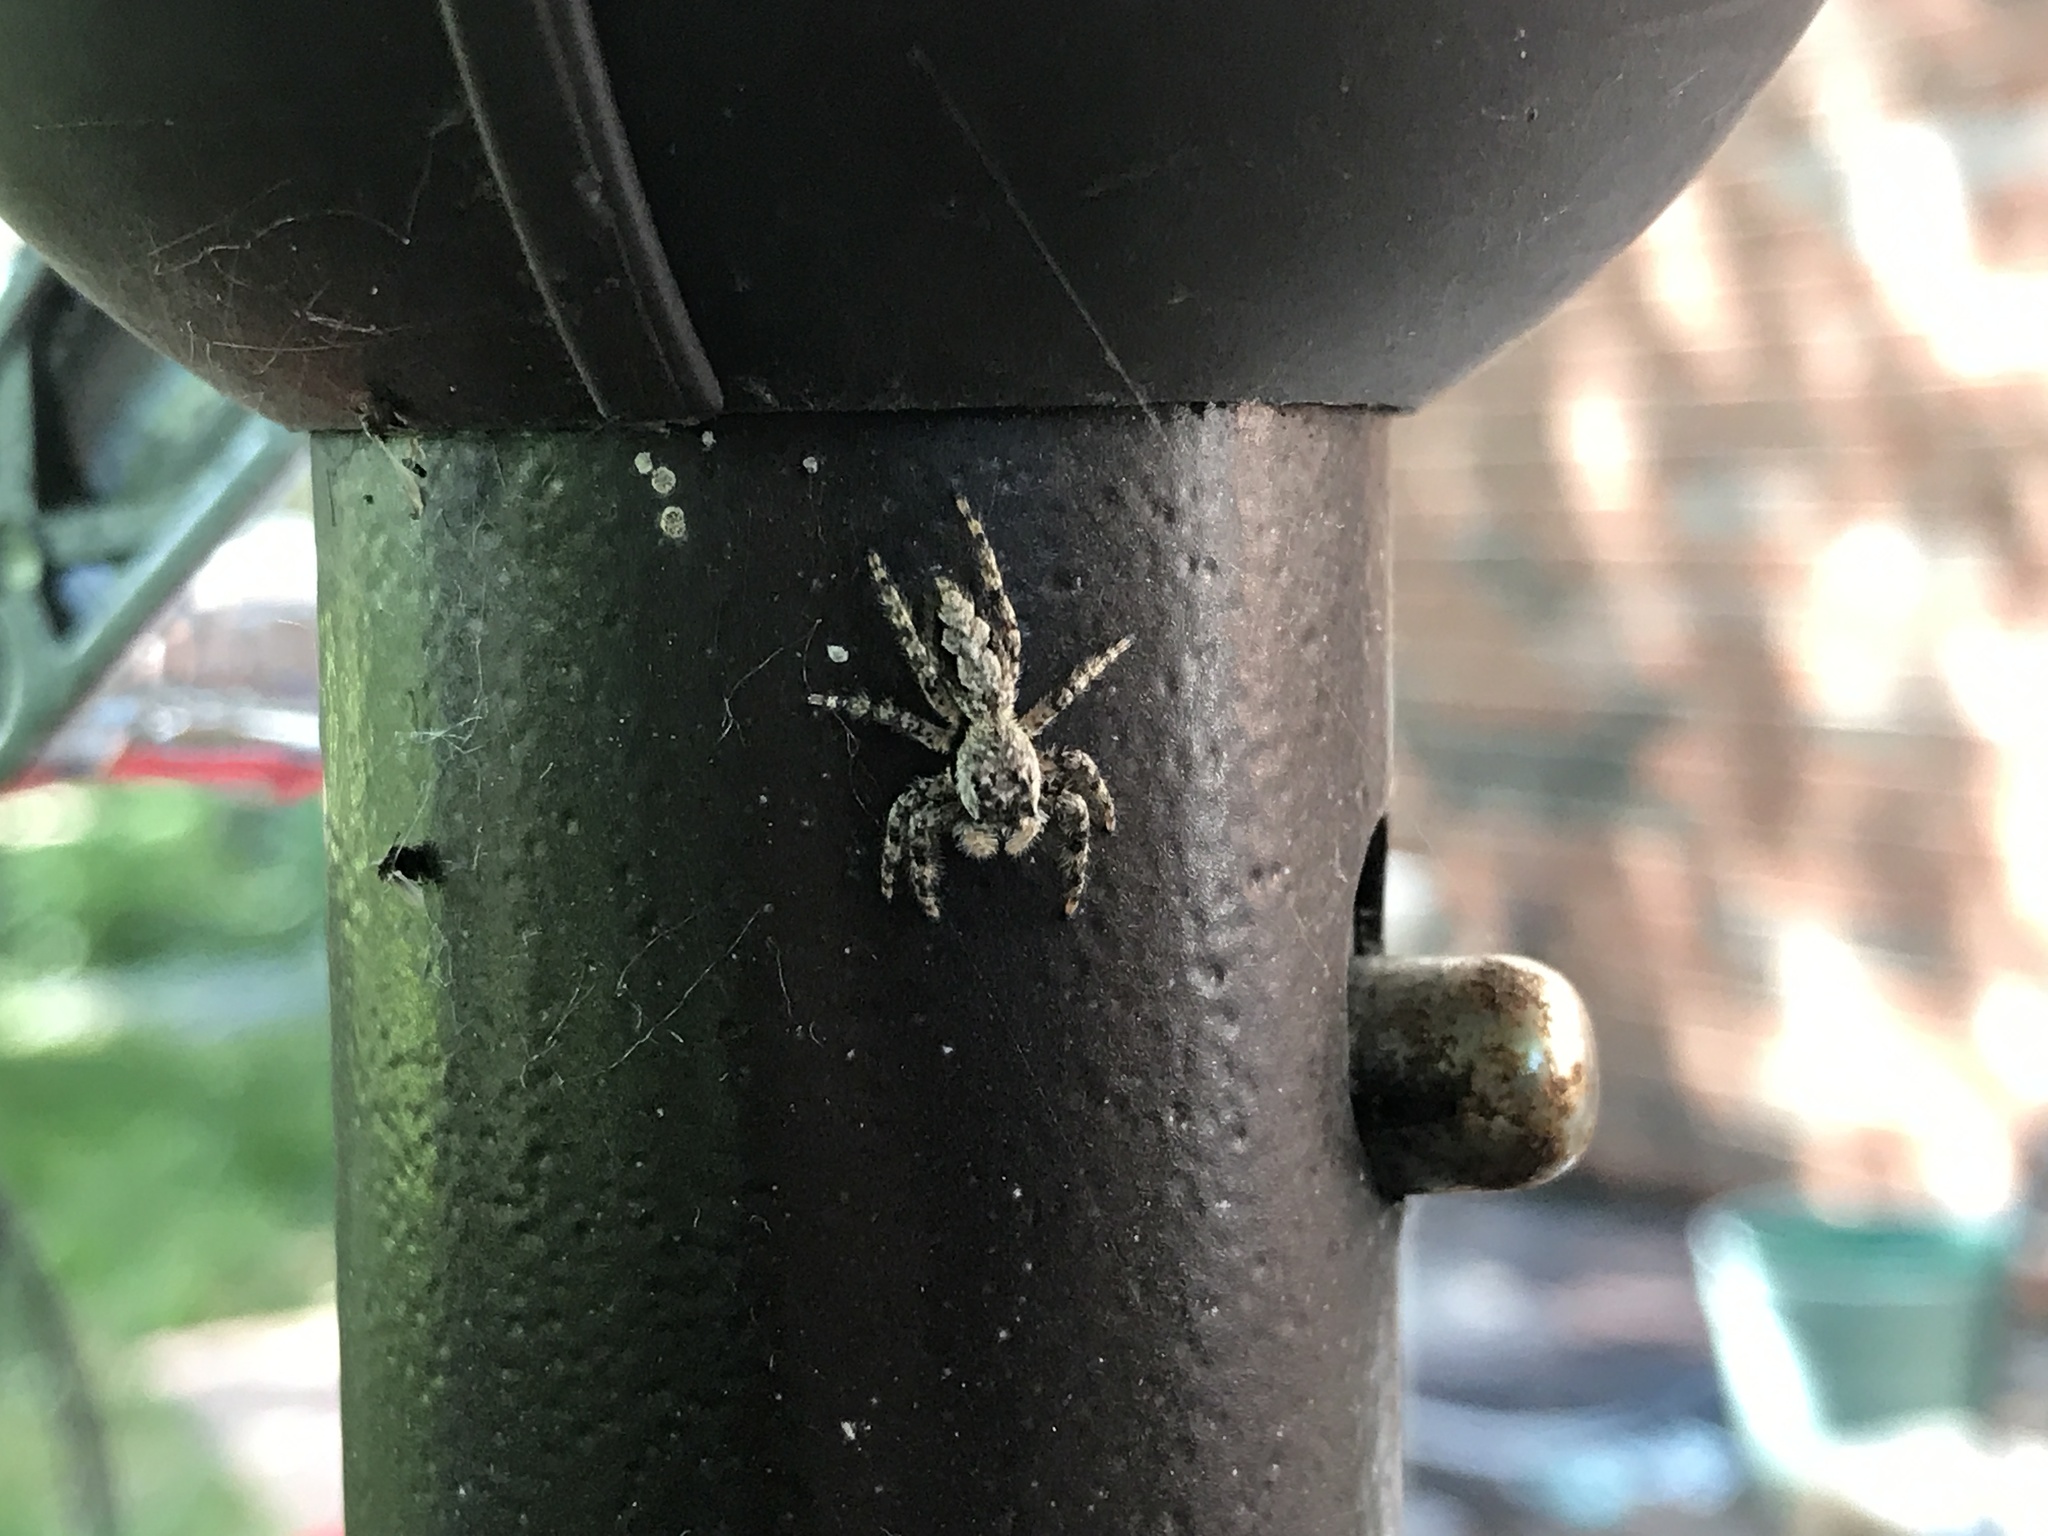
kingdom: Animalia
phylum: Arthropoda
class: Arachnida
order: Araneae
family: Salticidae
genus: Platycryptus
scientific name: Platycryptus undatus
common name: Tan jumping spider
